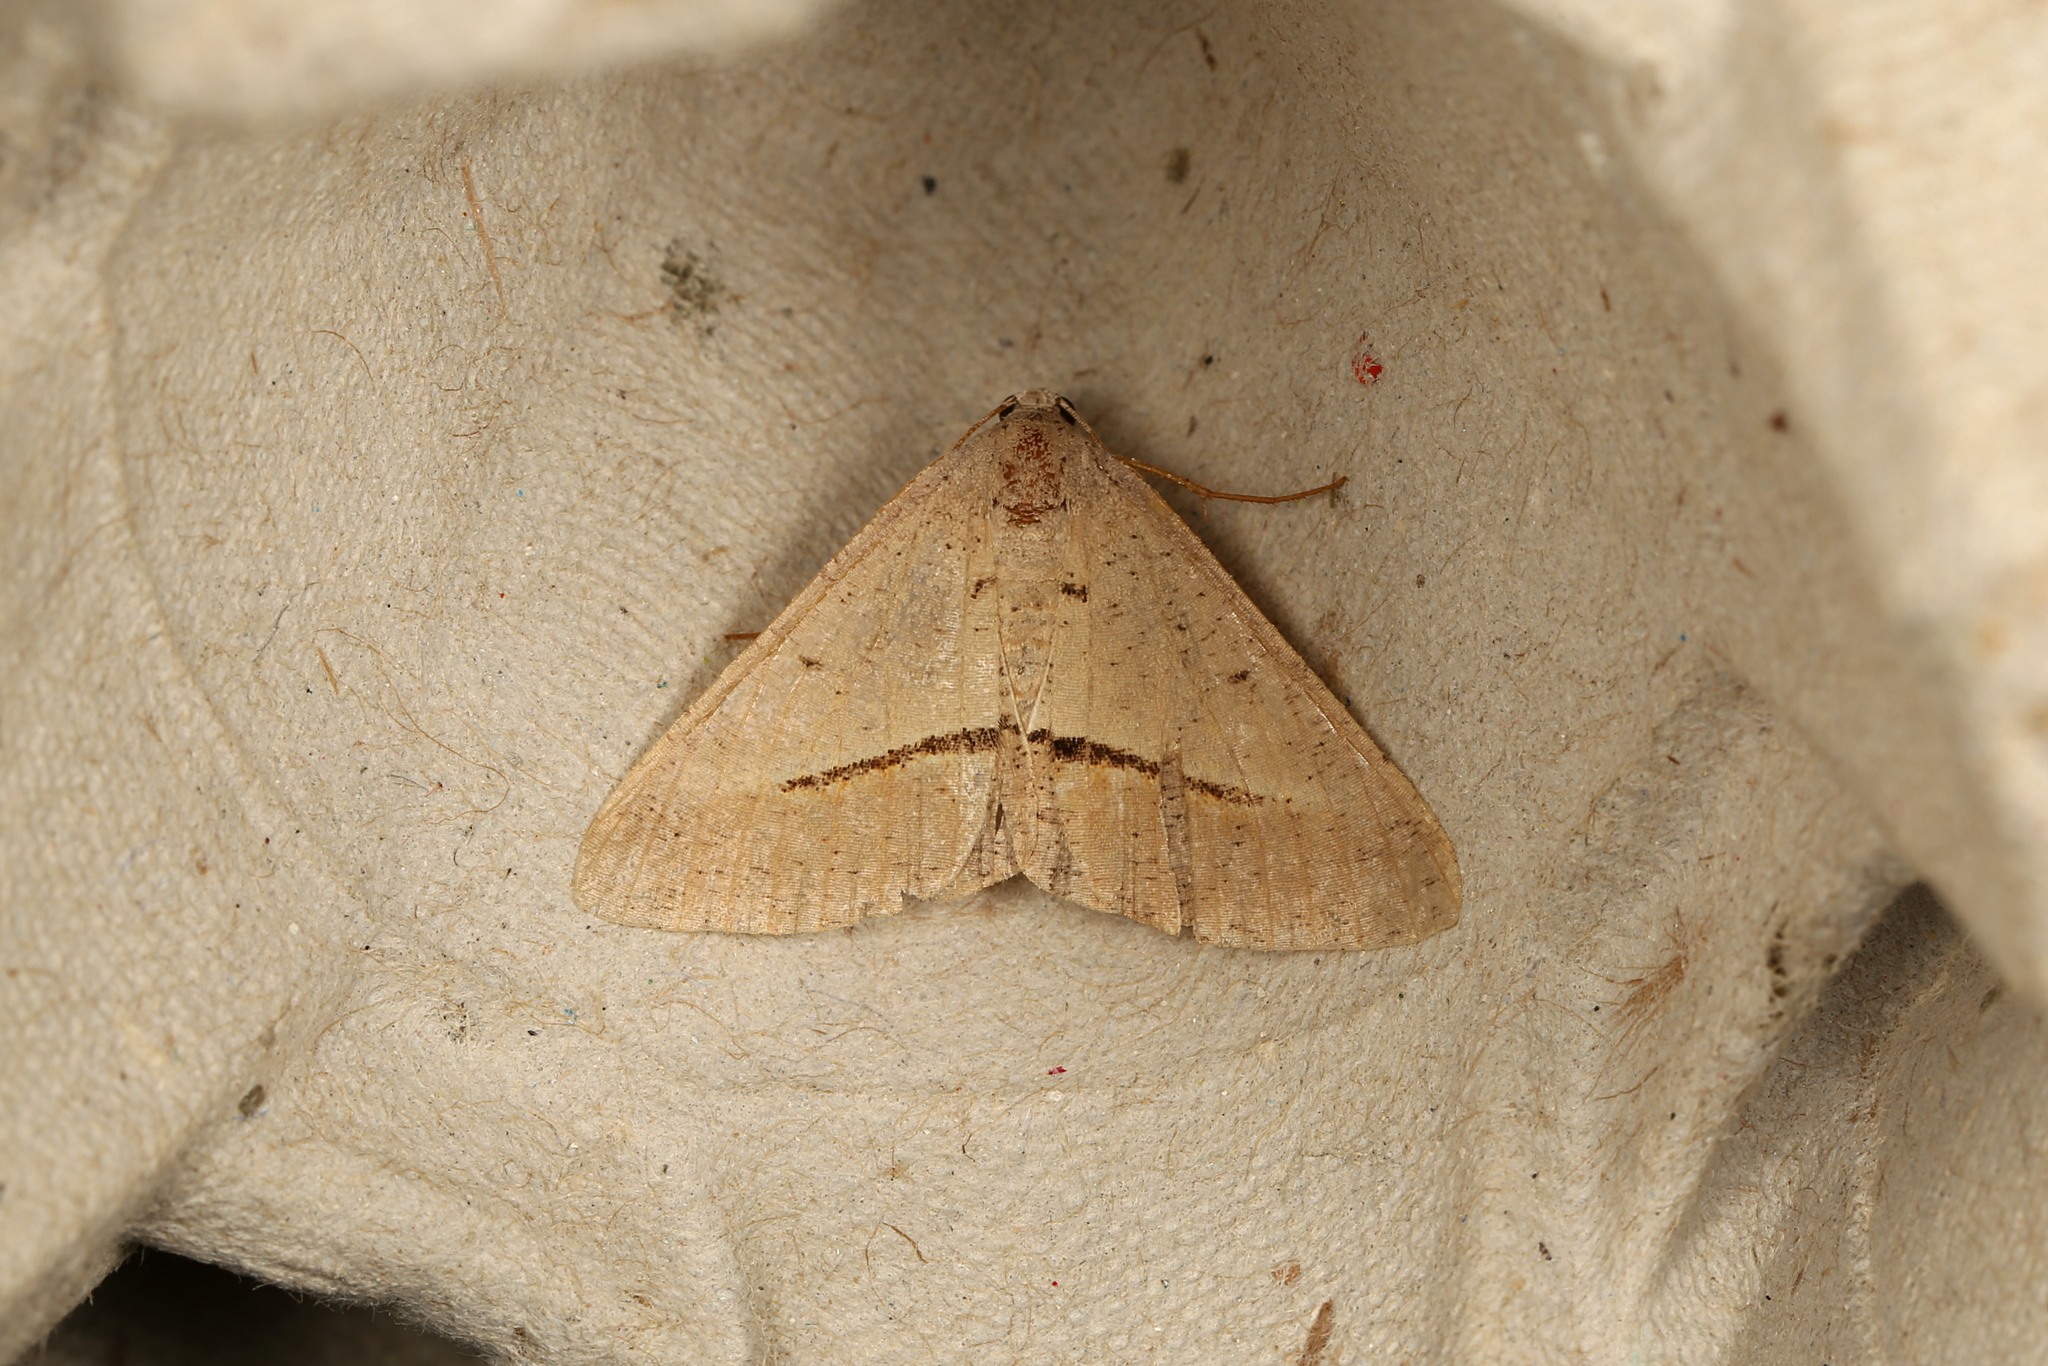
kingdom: Animalia
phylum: Arthropoda
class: Insecta
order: Lepidoptera
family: Geometridae
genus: Isturgia
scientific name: Isturgia
